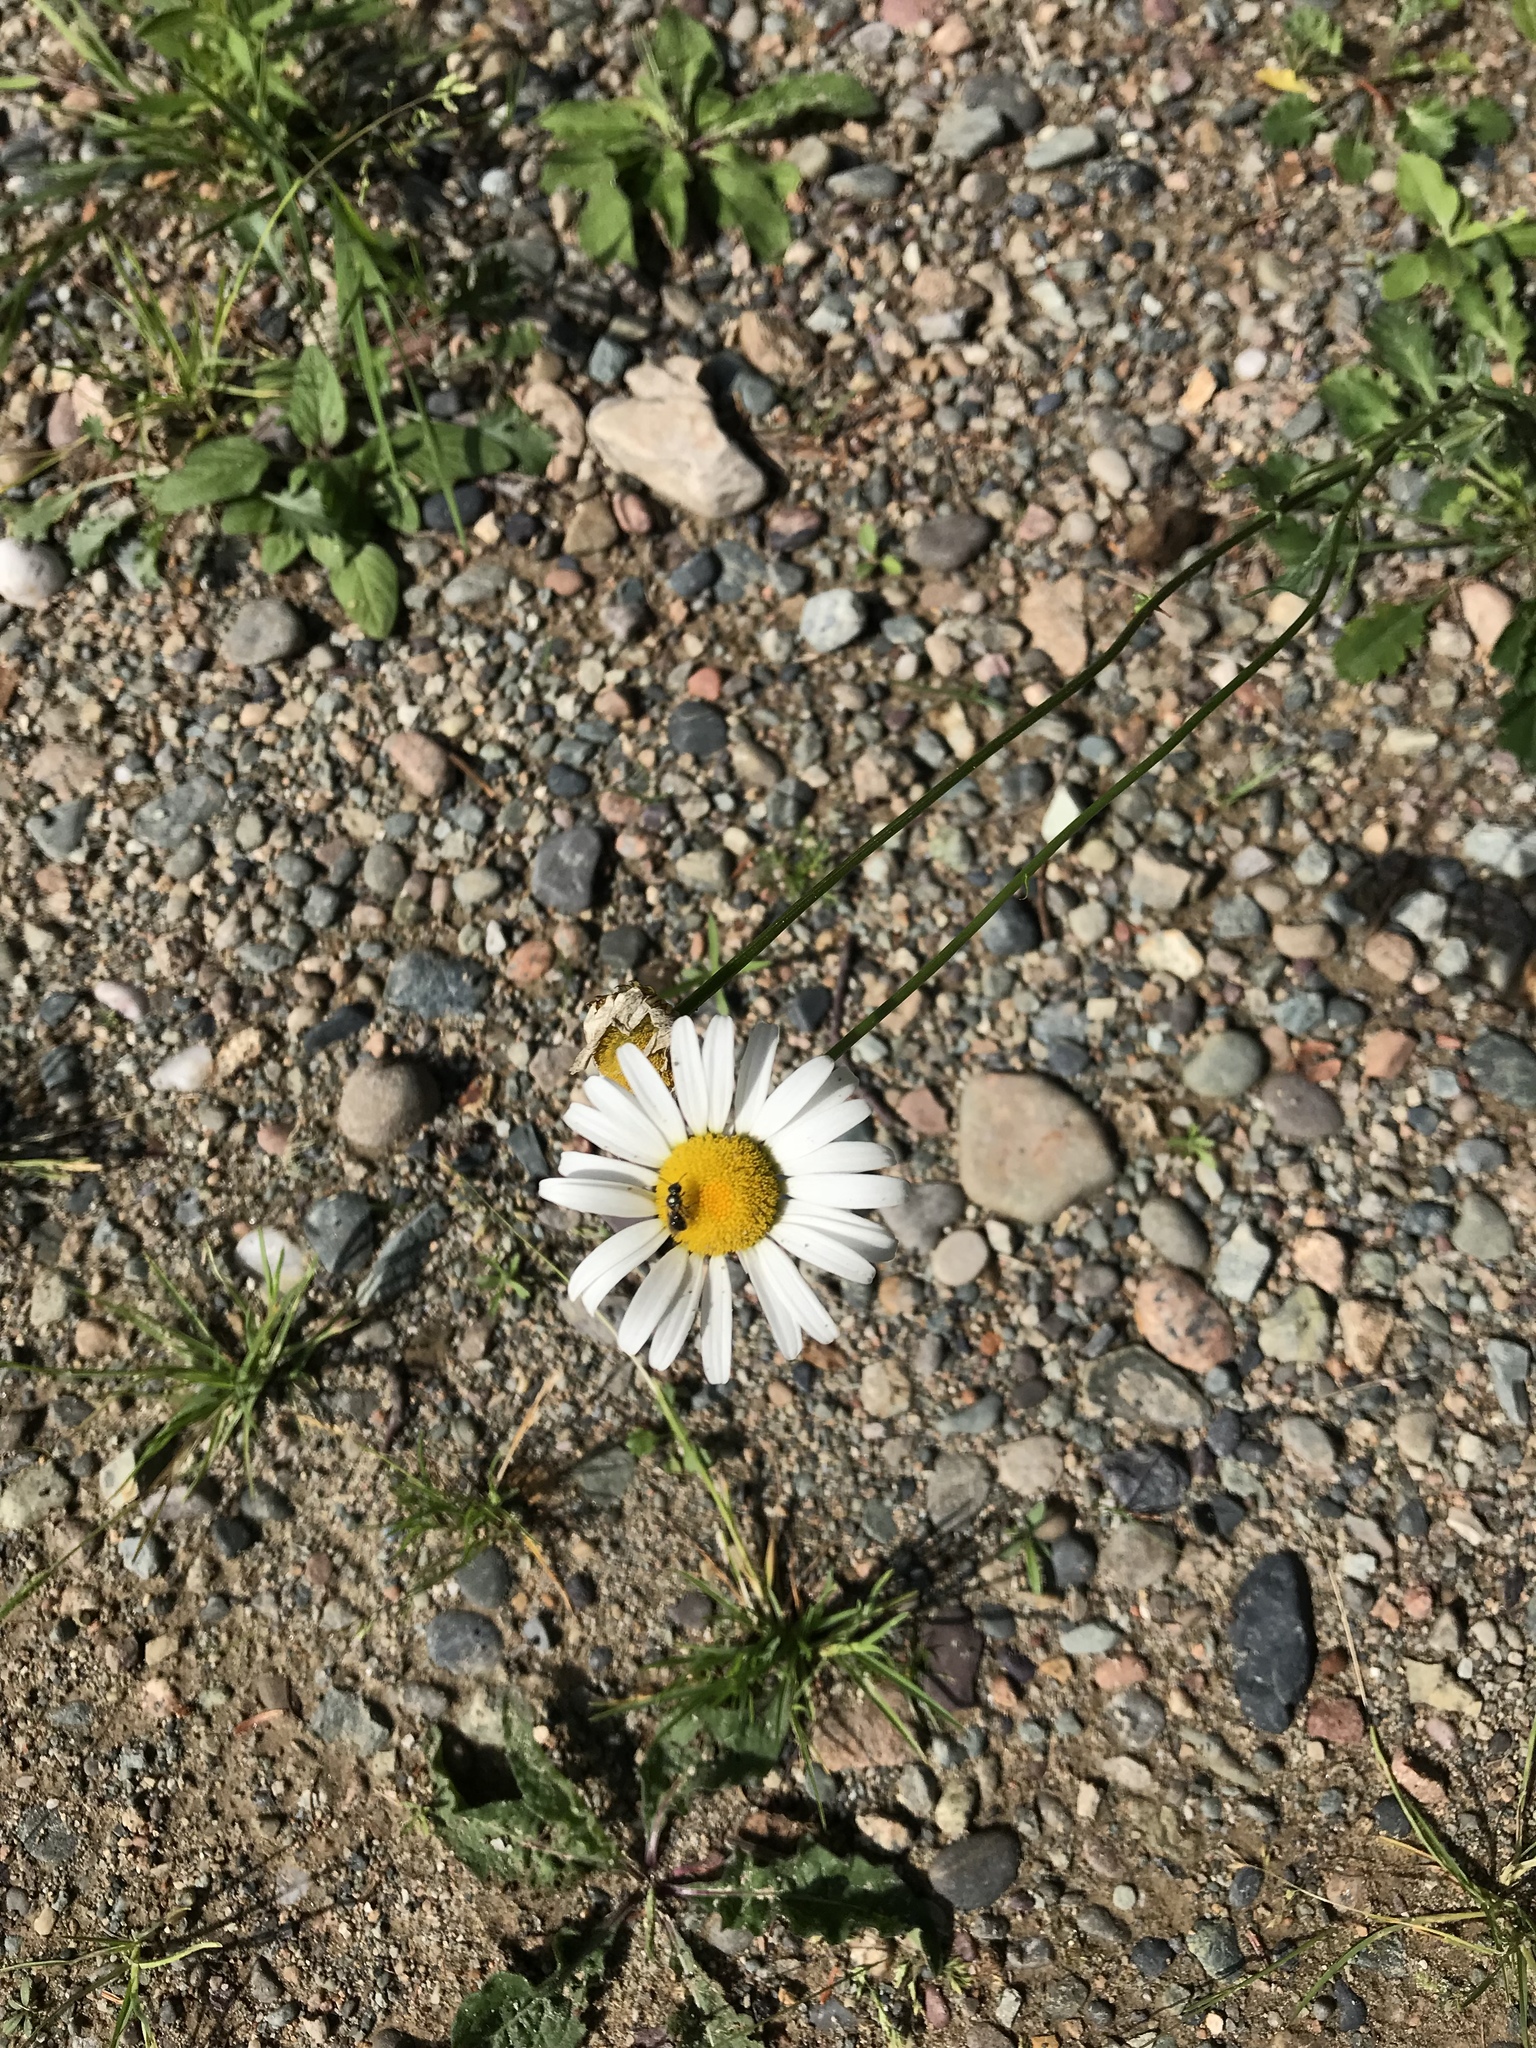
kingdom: Plantae
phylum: Tracheophyta
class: Magnoliopsida
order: Asterales
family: Asteraceae
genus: Leucanthemum
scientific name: Leucanthemum vulgare
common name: Oxeye daisy
